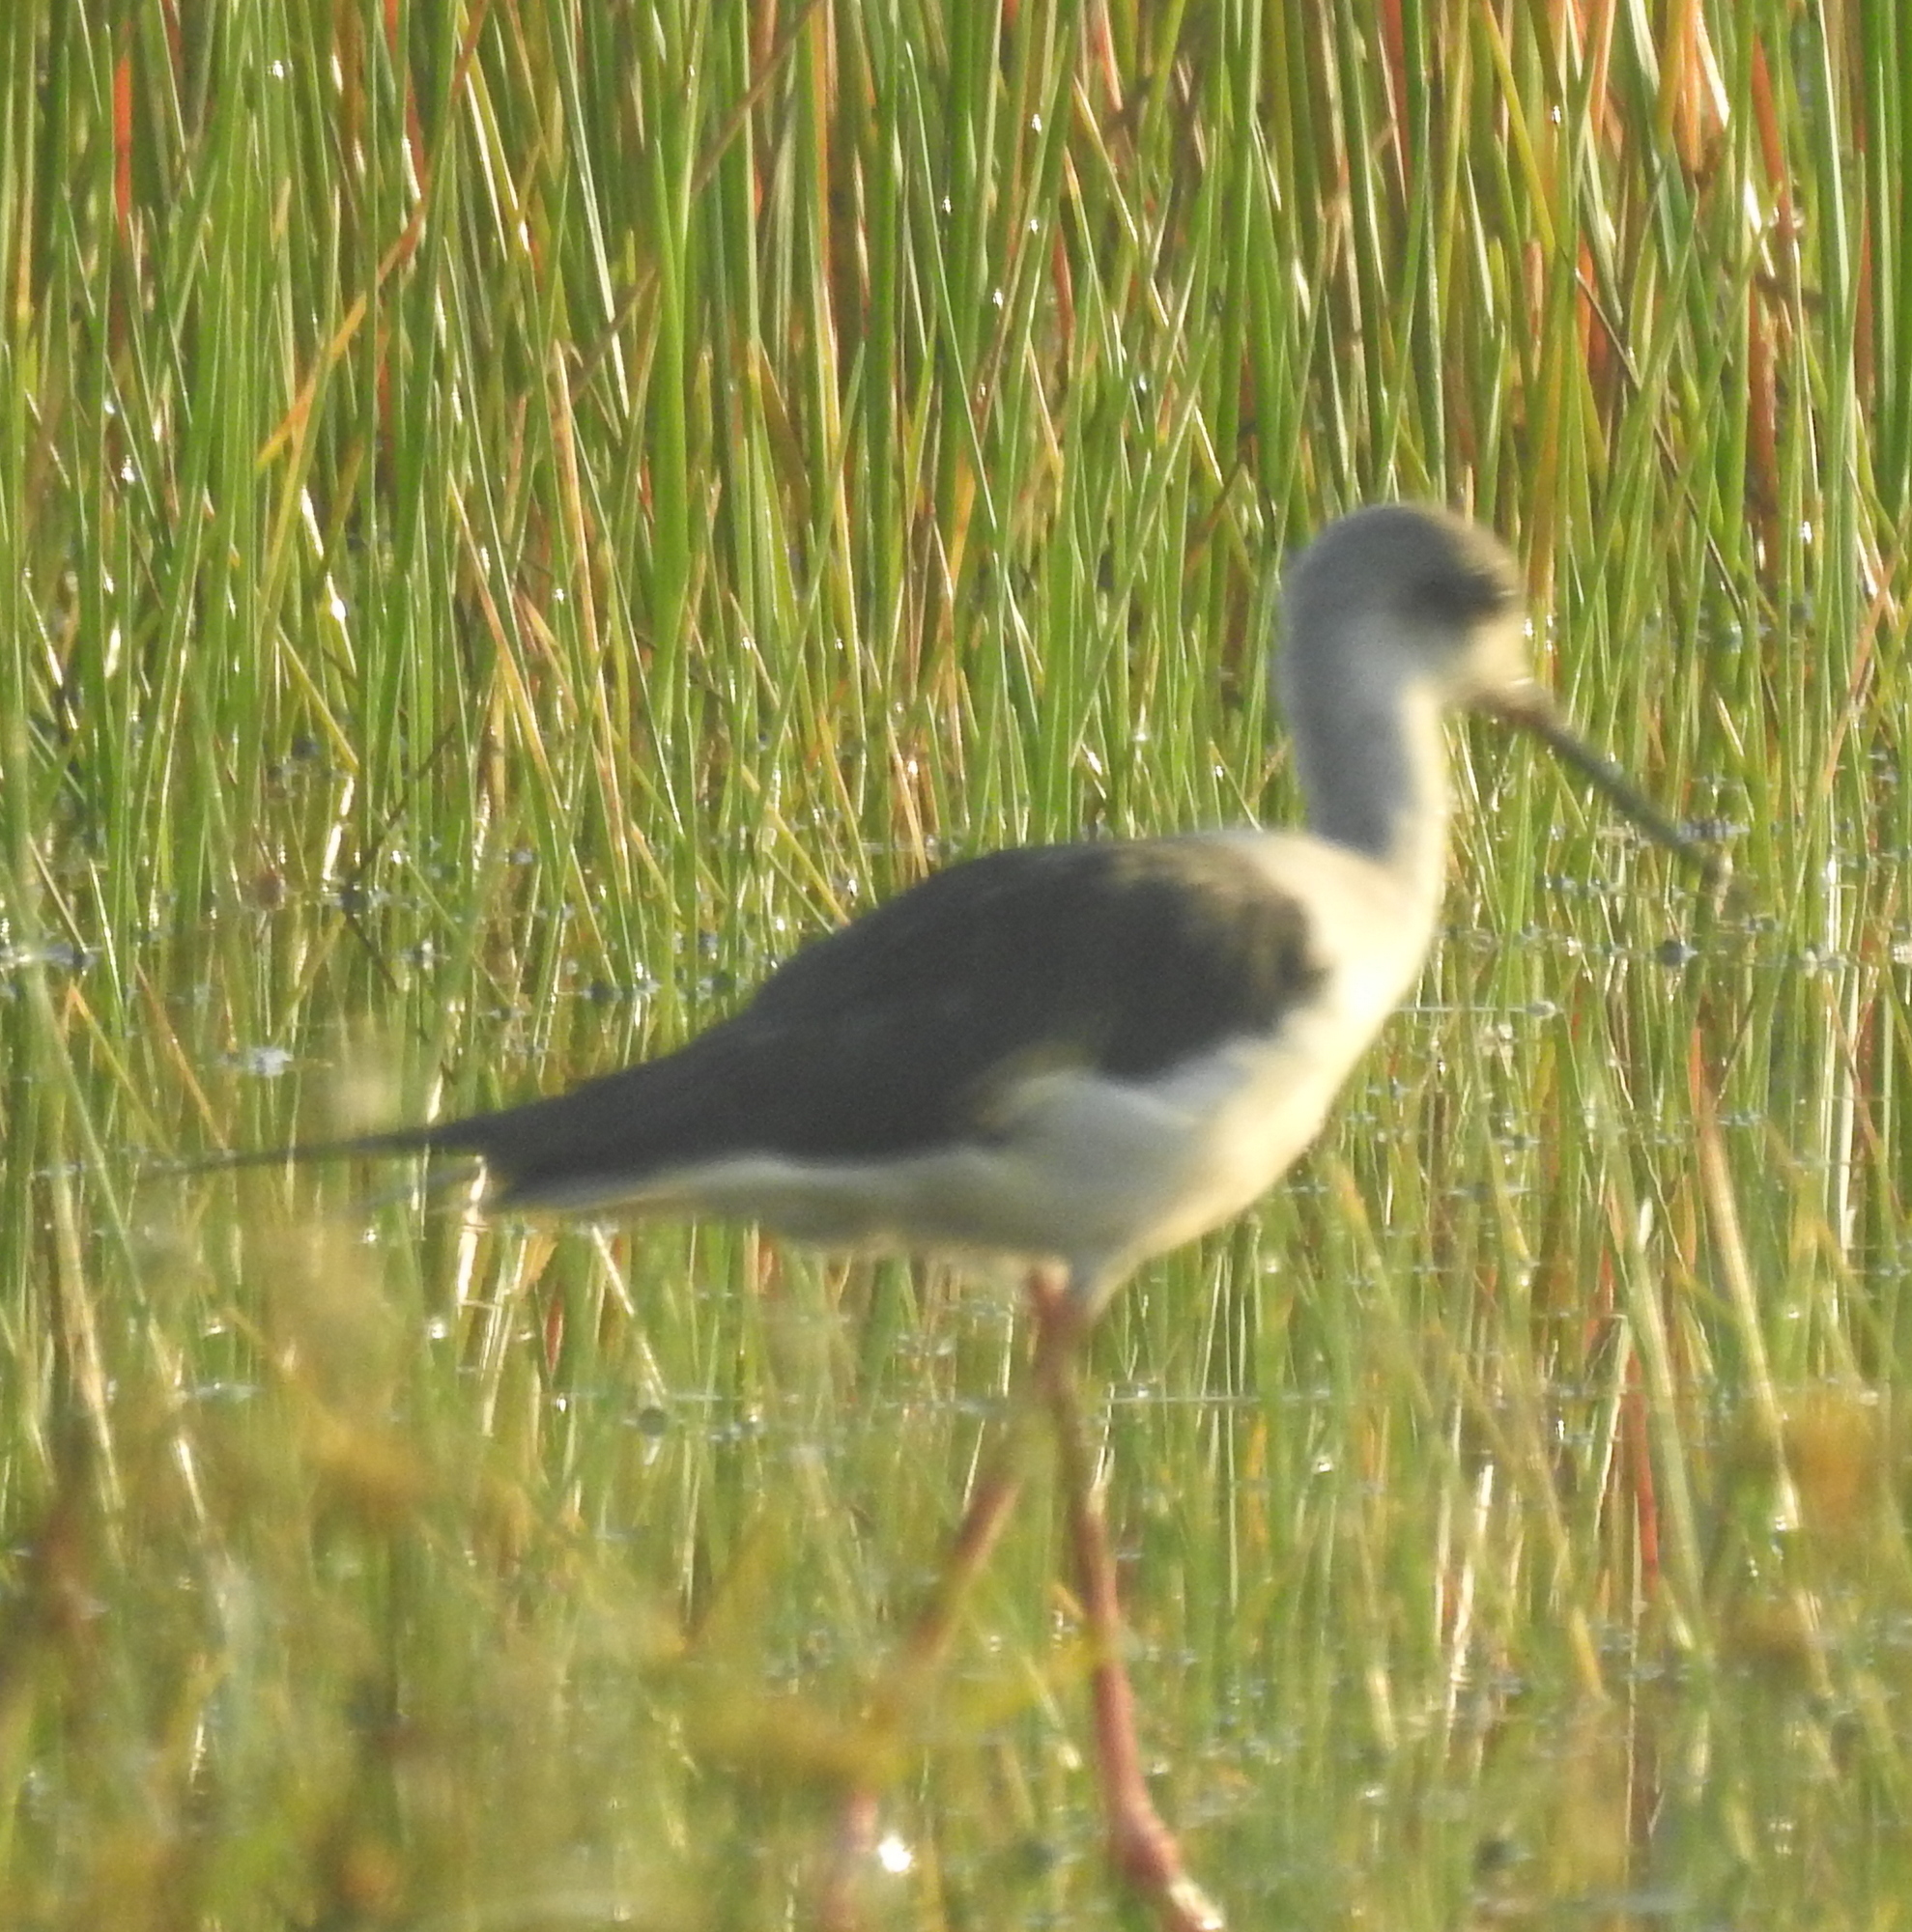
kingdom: Animalia
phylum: Chordata
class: Aves
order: Charadriiformes
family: Recurvirostridae
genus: Himantopus
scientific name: Himantopus himantopus
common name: Black-winged stilt
